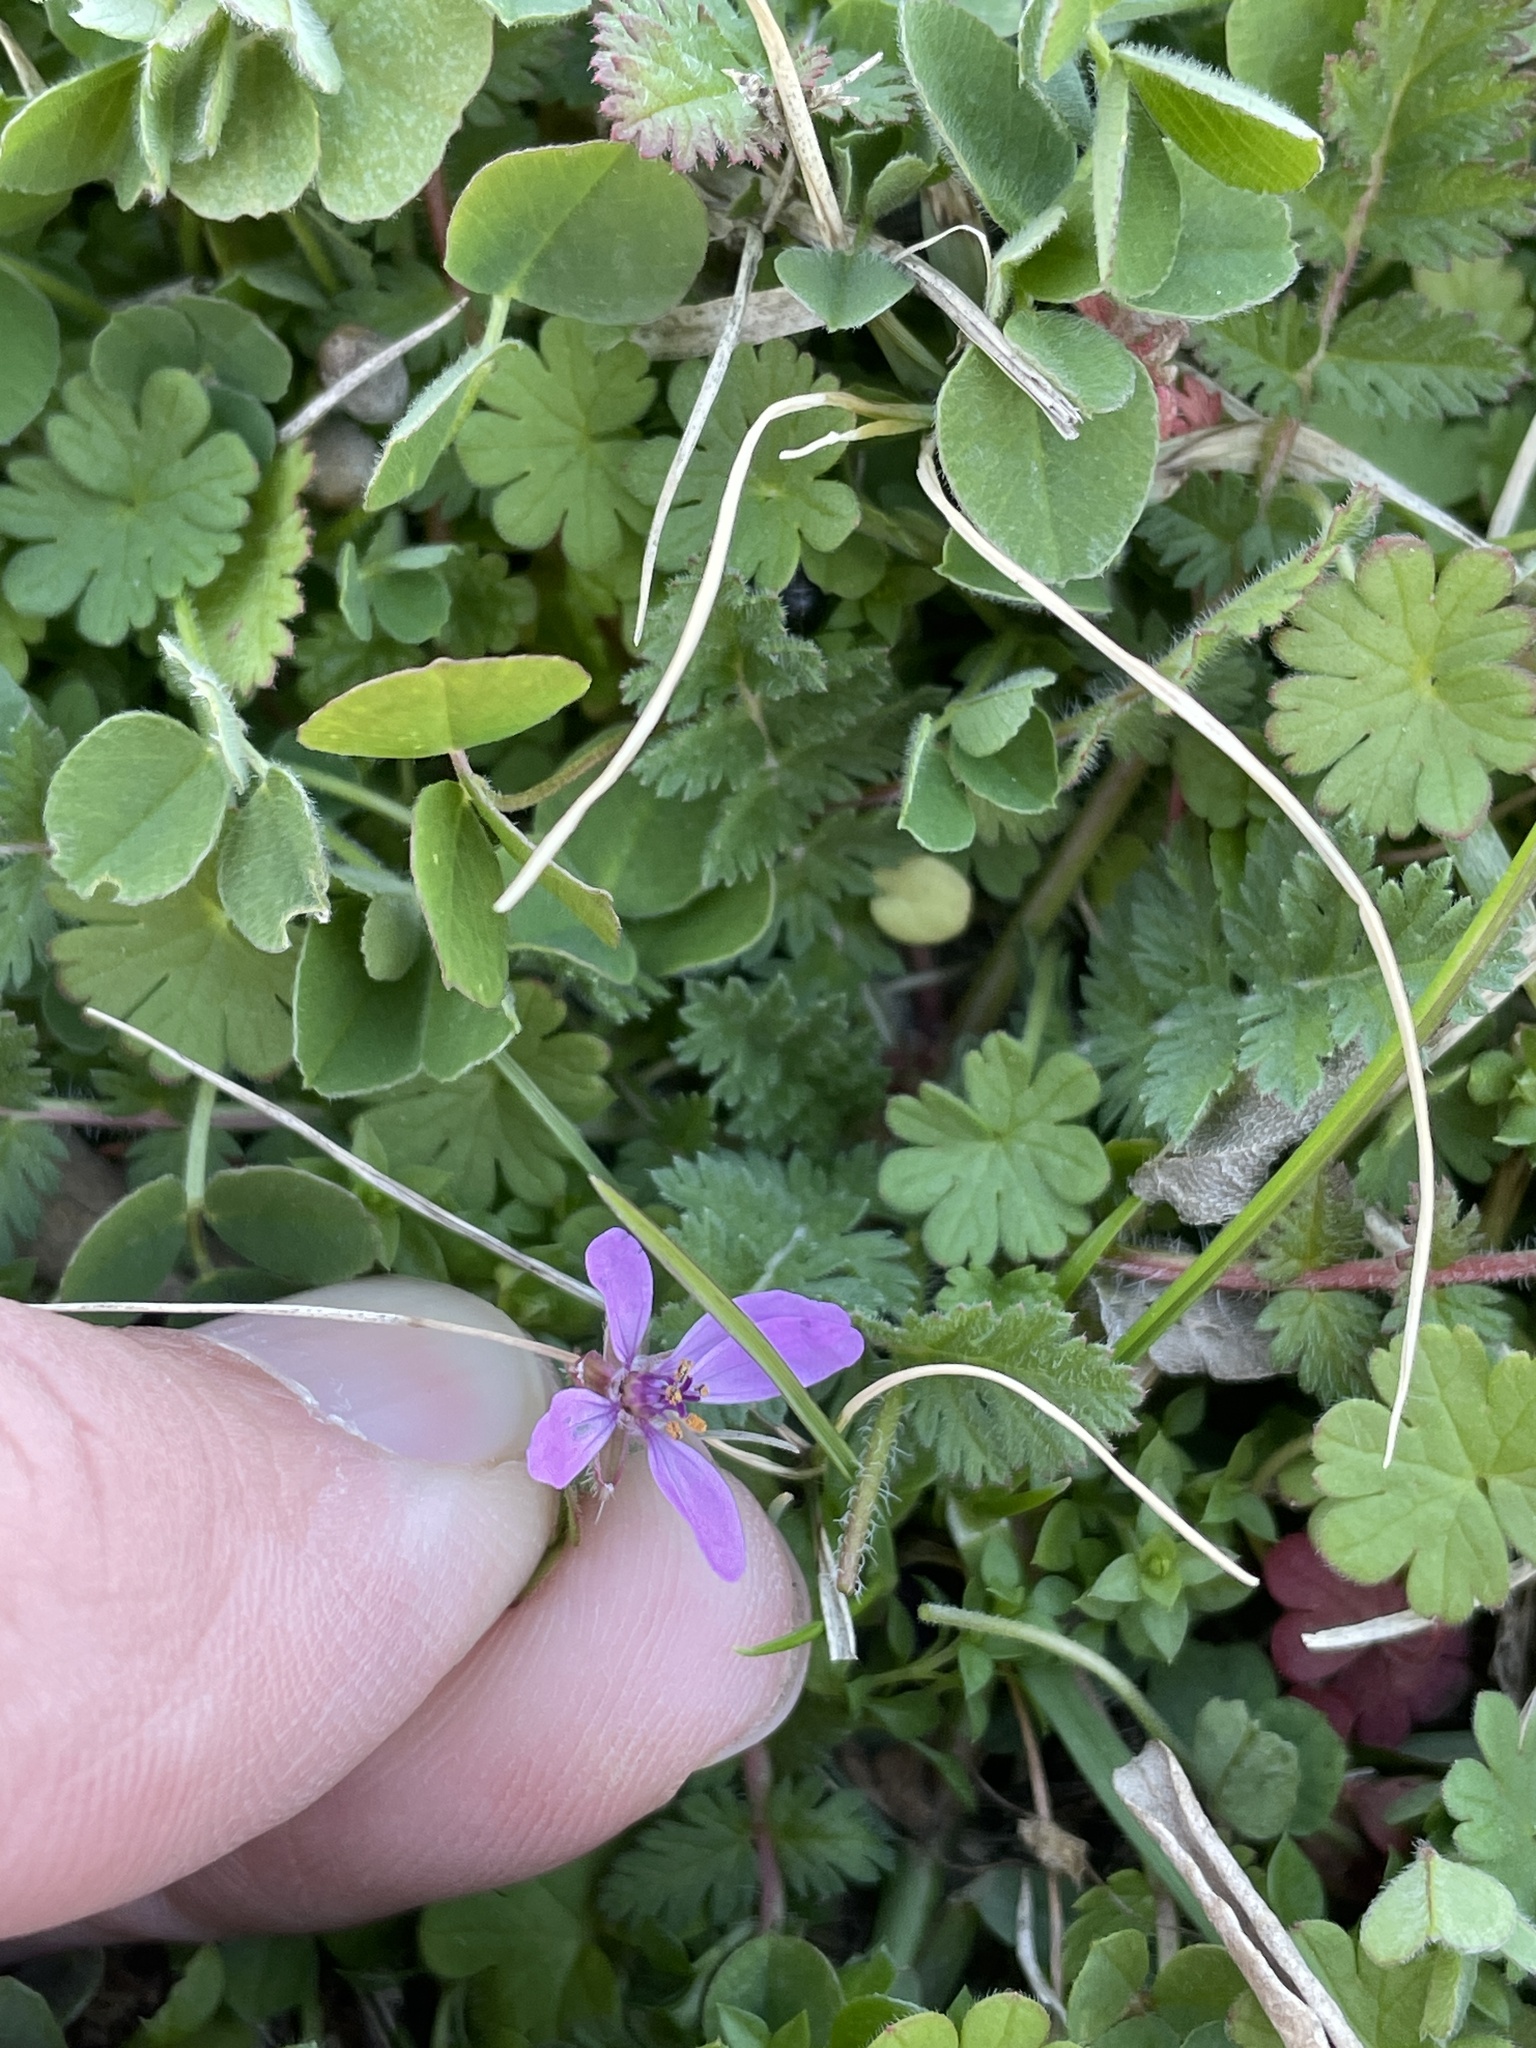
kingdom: Plantae
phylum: Tracheophyta
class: Magnoliopsida
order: Geraniales
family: Geraniaceae
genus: Erodium
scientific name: Erodium cicutarium
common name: Common stork's-bill
